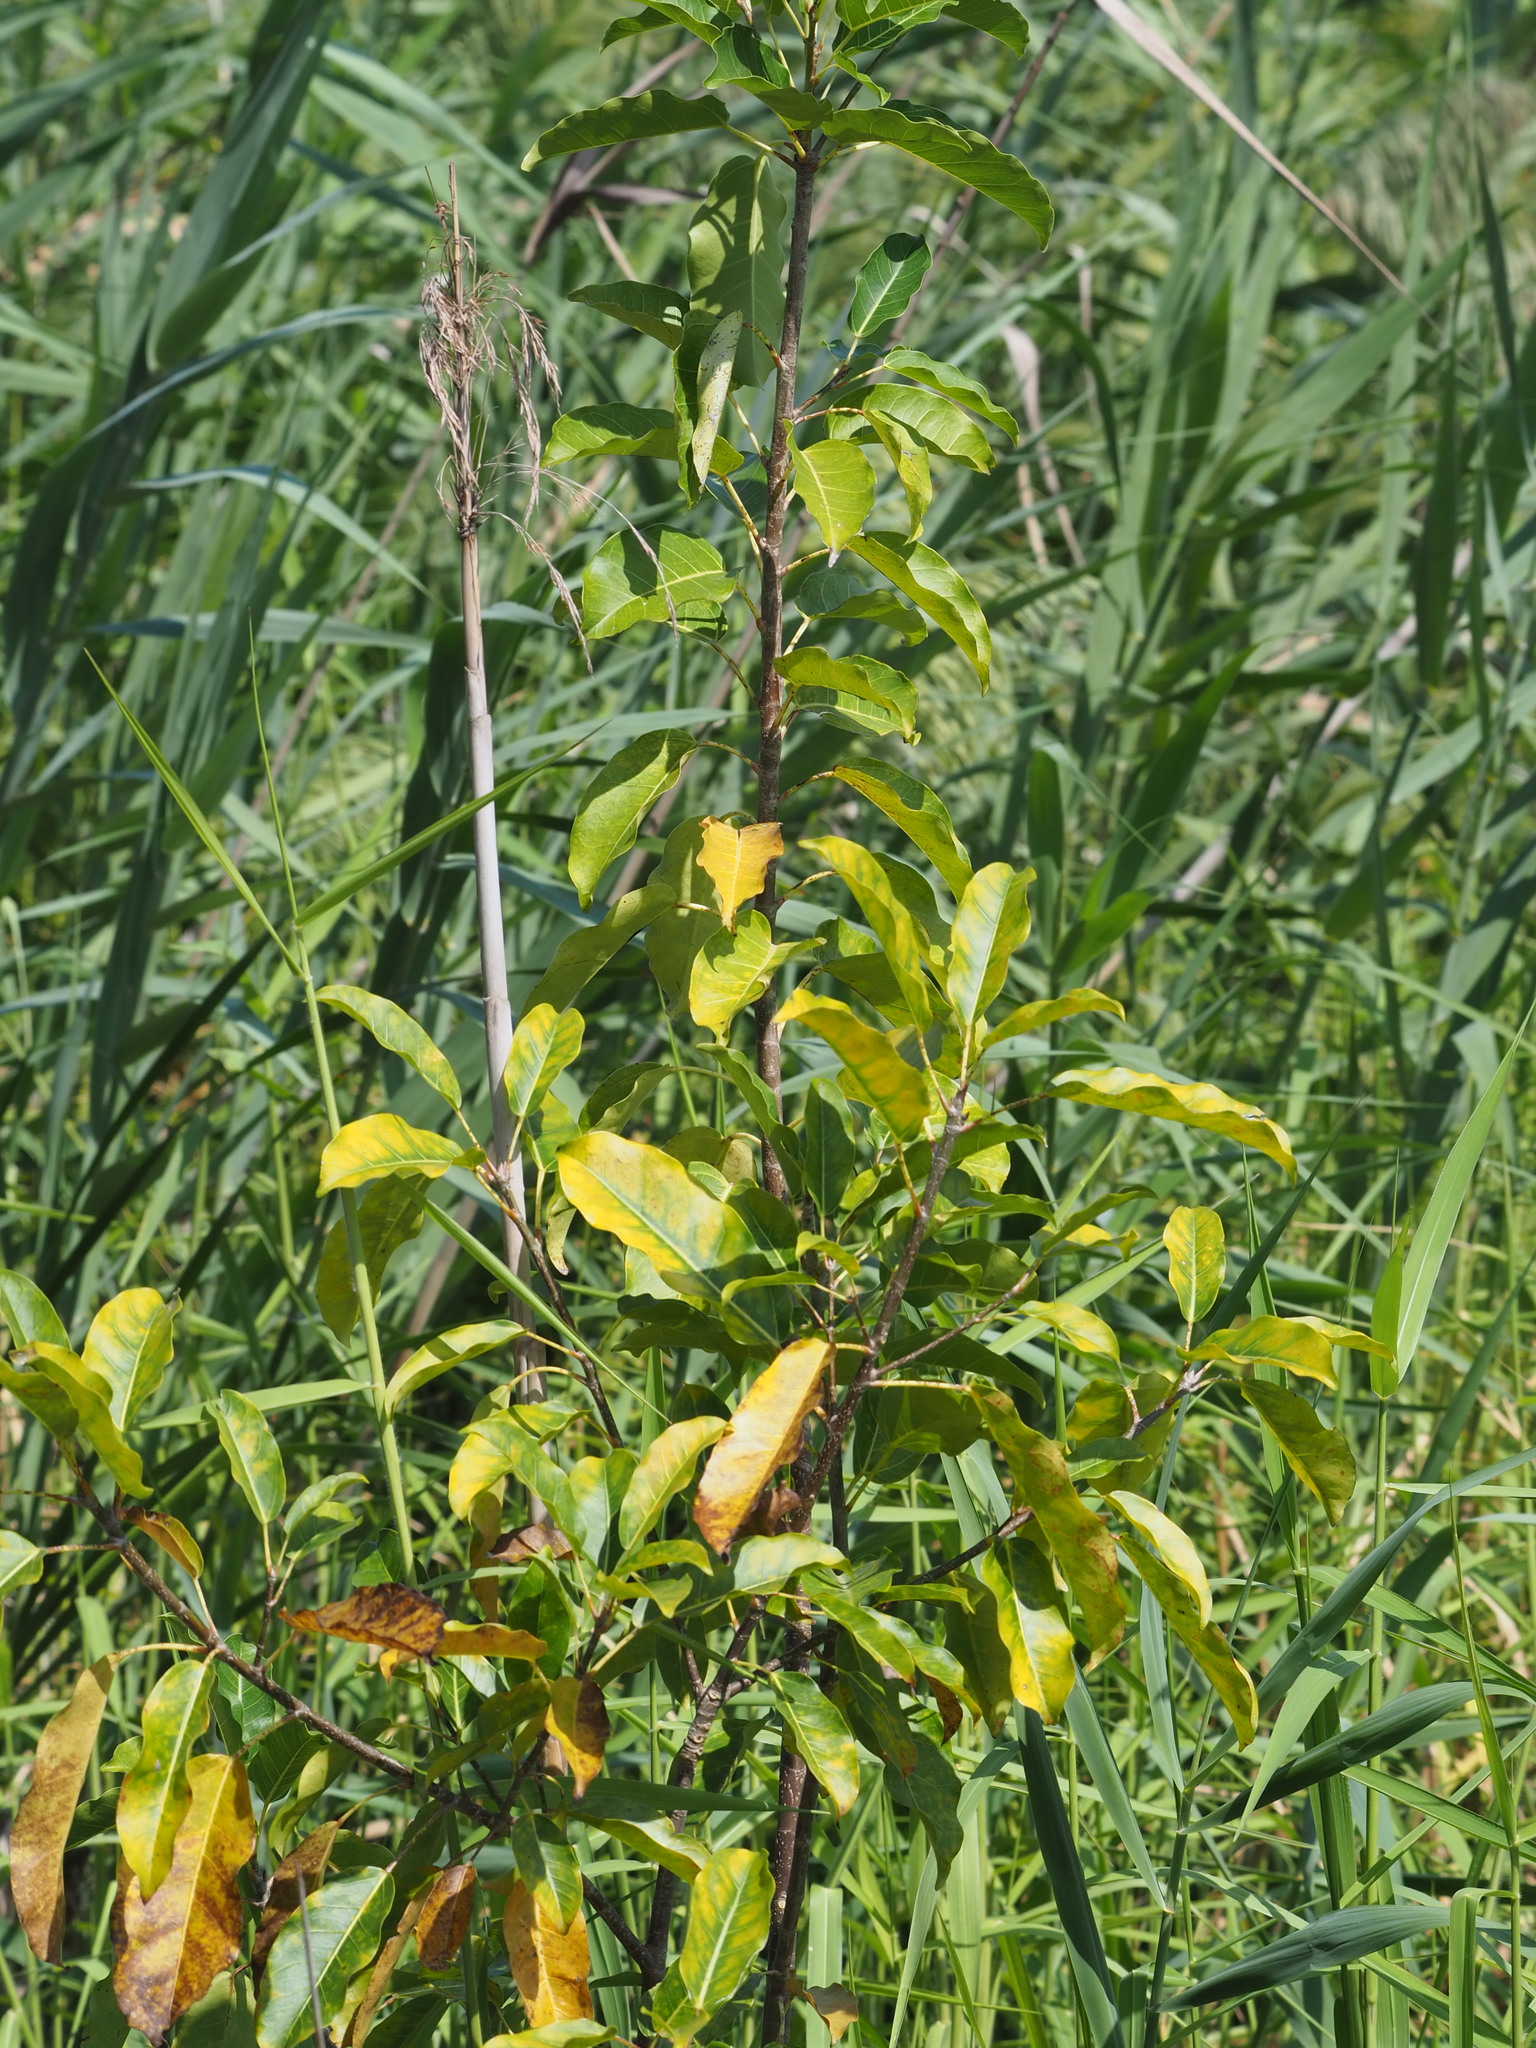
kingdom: Plantae
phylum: Tracheophyta
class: Magnoliopsida
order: Rosales
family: Moraceae
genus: Ficus
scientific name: Ficus subpisocarpa
